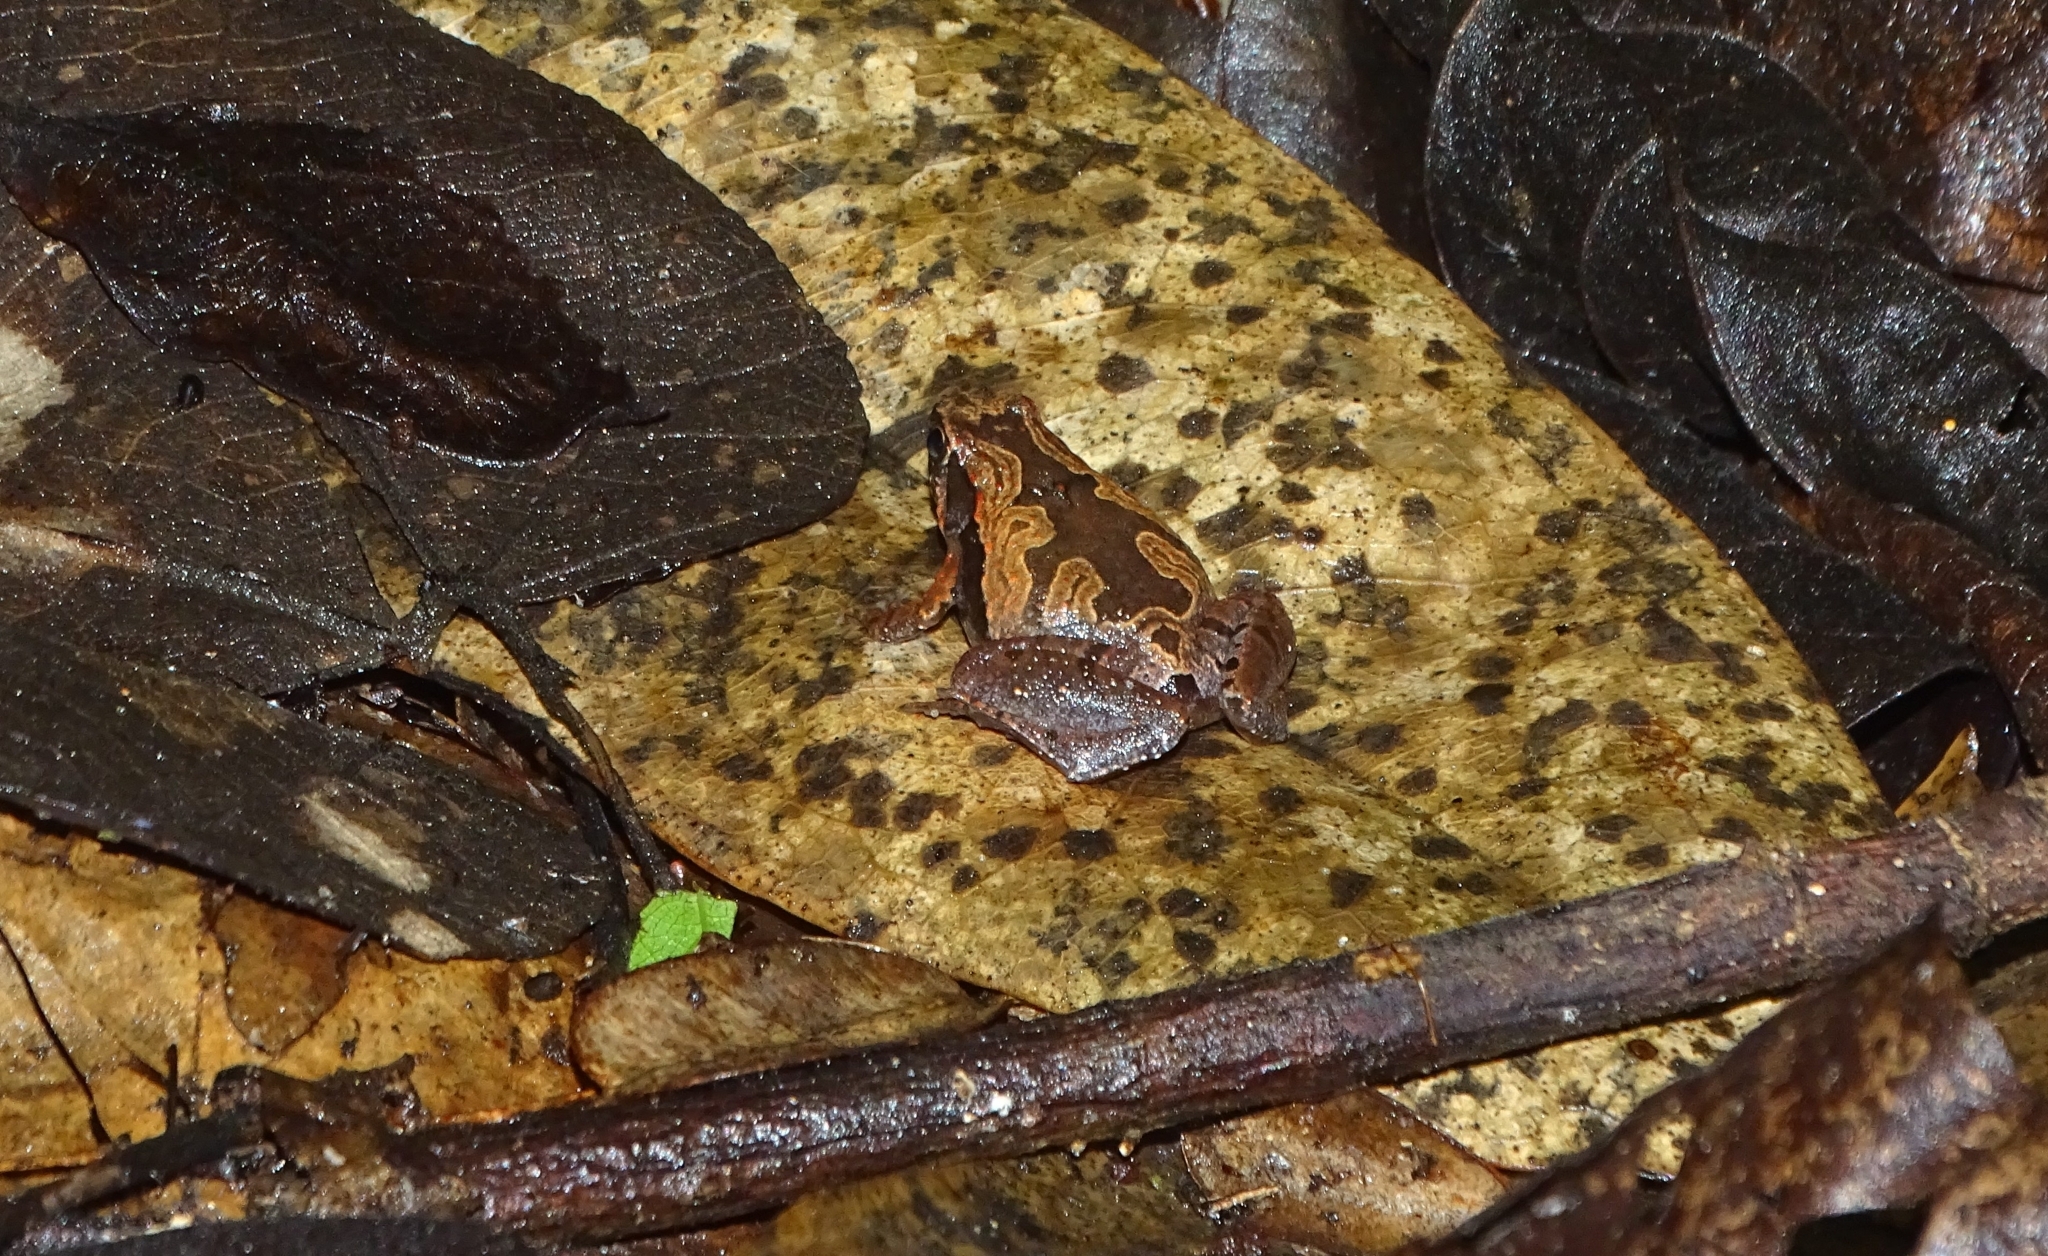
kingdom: Animalia
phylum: Chordata
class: Amphibia
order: Anura
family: Microhylidae
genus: Microhyla
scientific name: Microhyla ornata
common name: Ant frog
